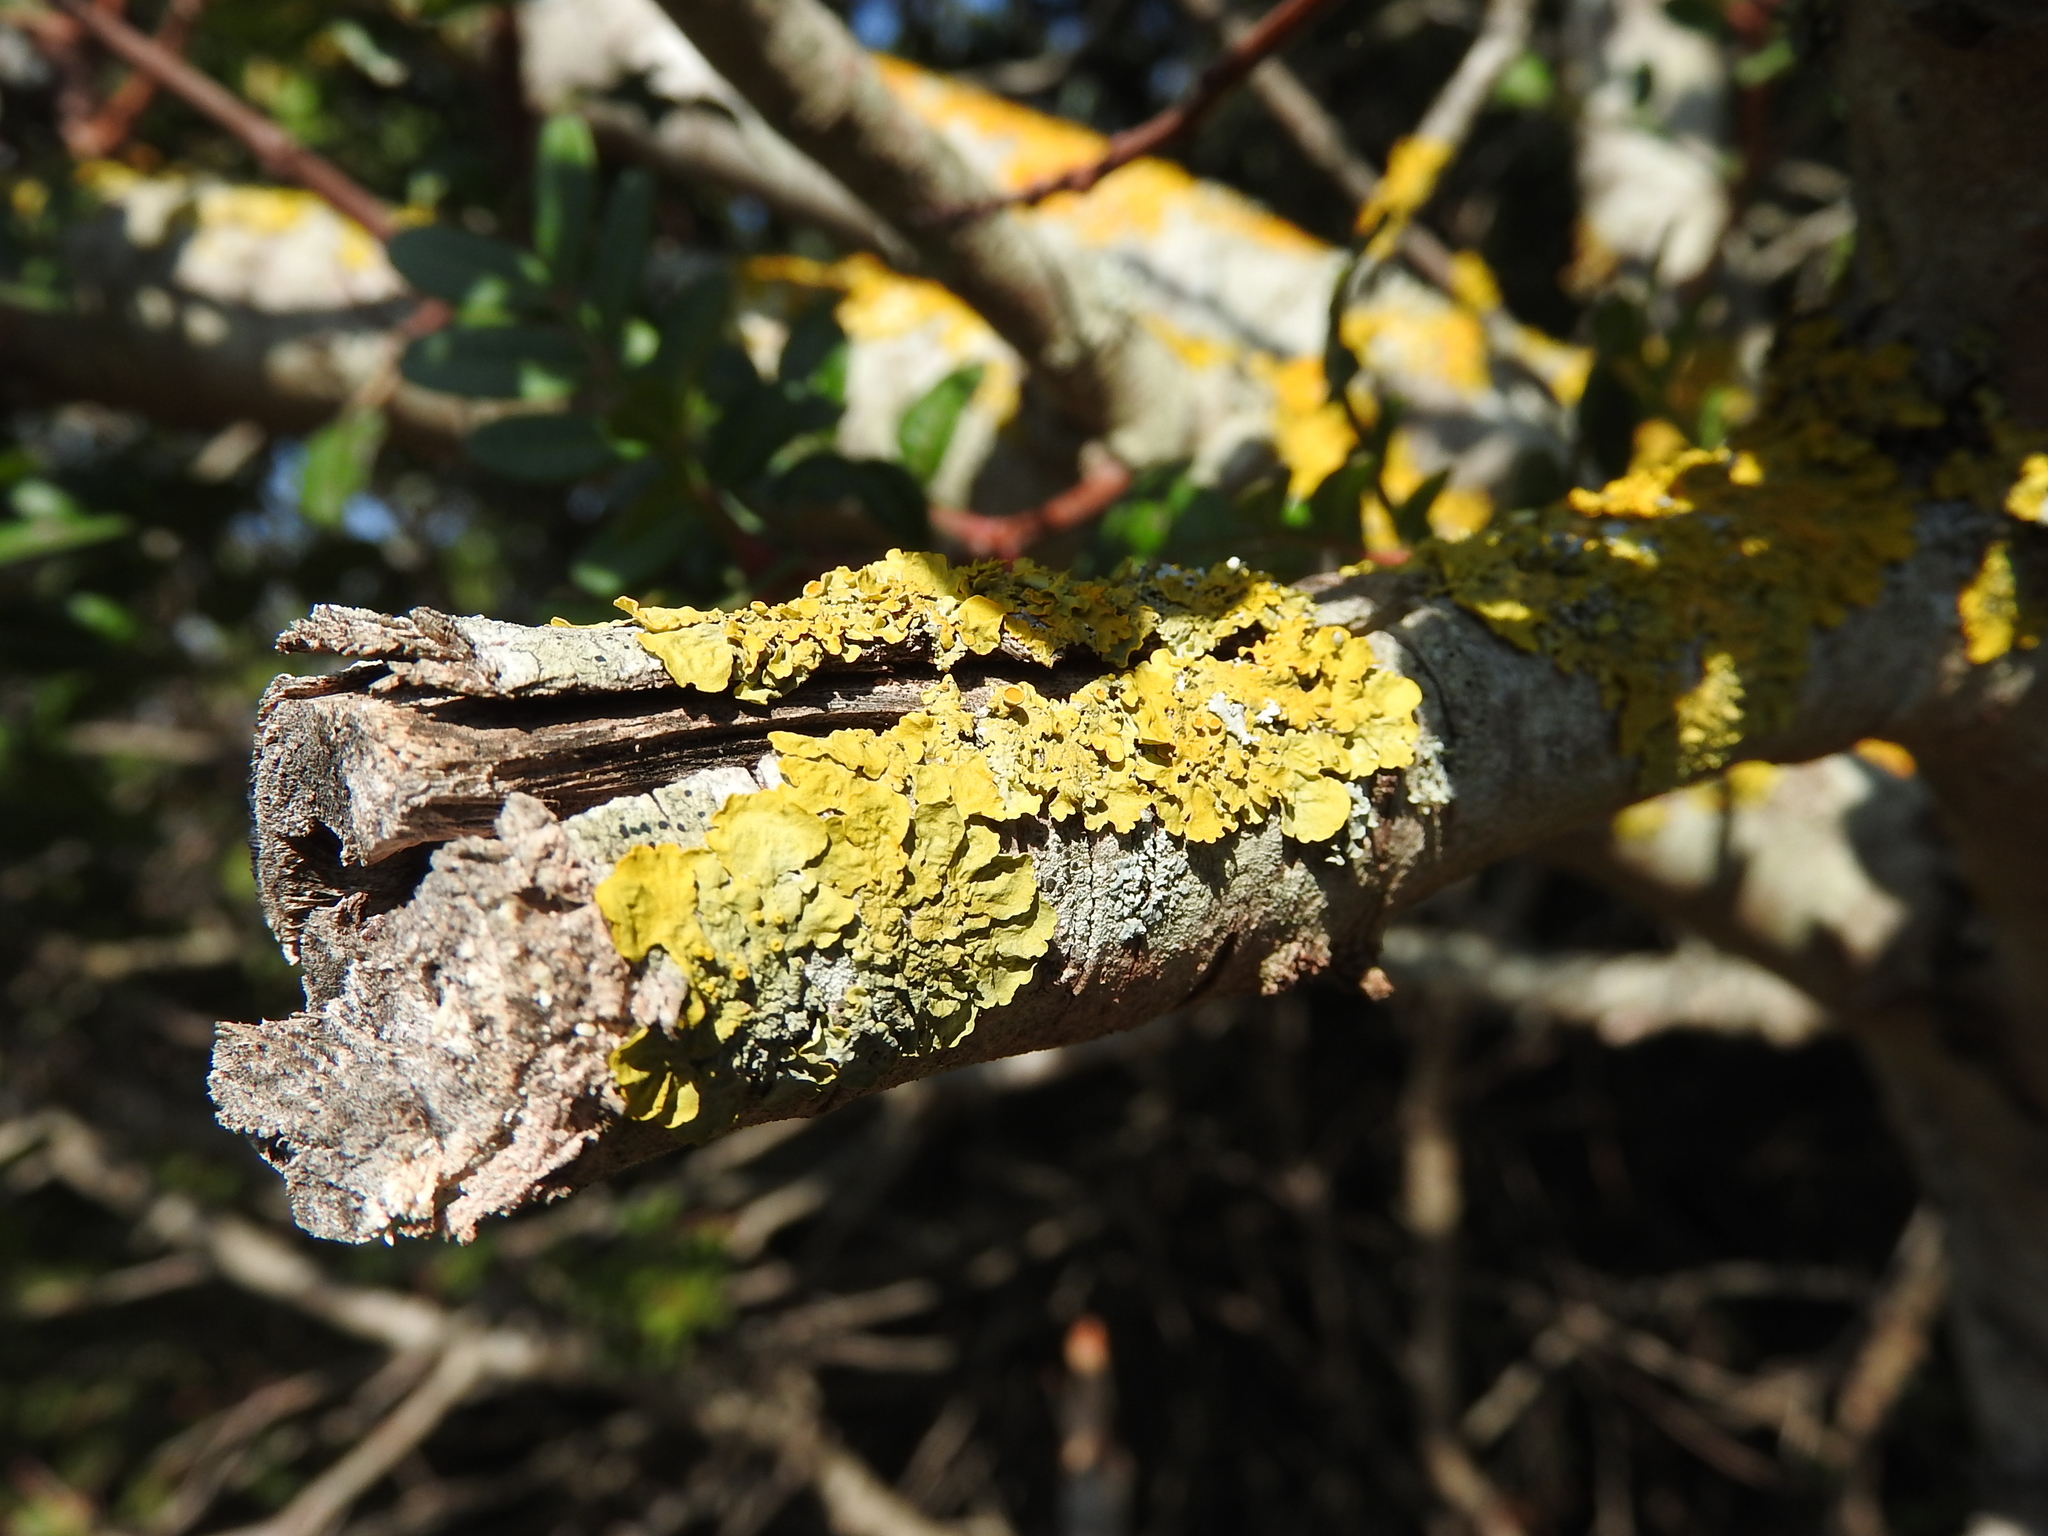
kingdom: Fungi
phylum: Ascomycota
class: Lecanoromycetes
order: Teloschistales
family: Teloschistaceae
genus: Xanthoria
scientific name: Xanthoria parietina
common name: Common orange lichen
